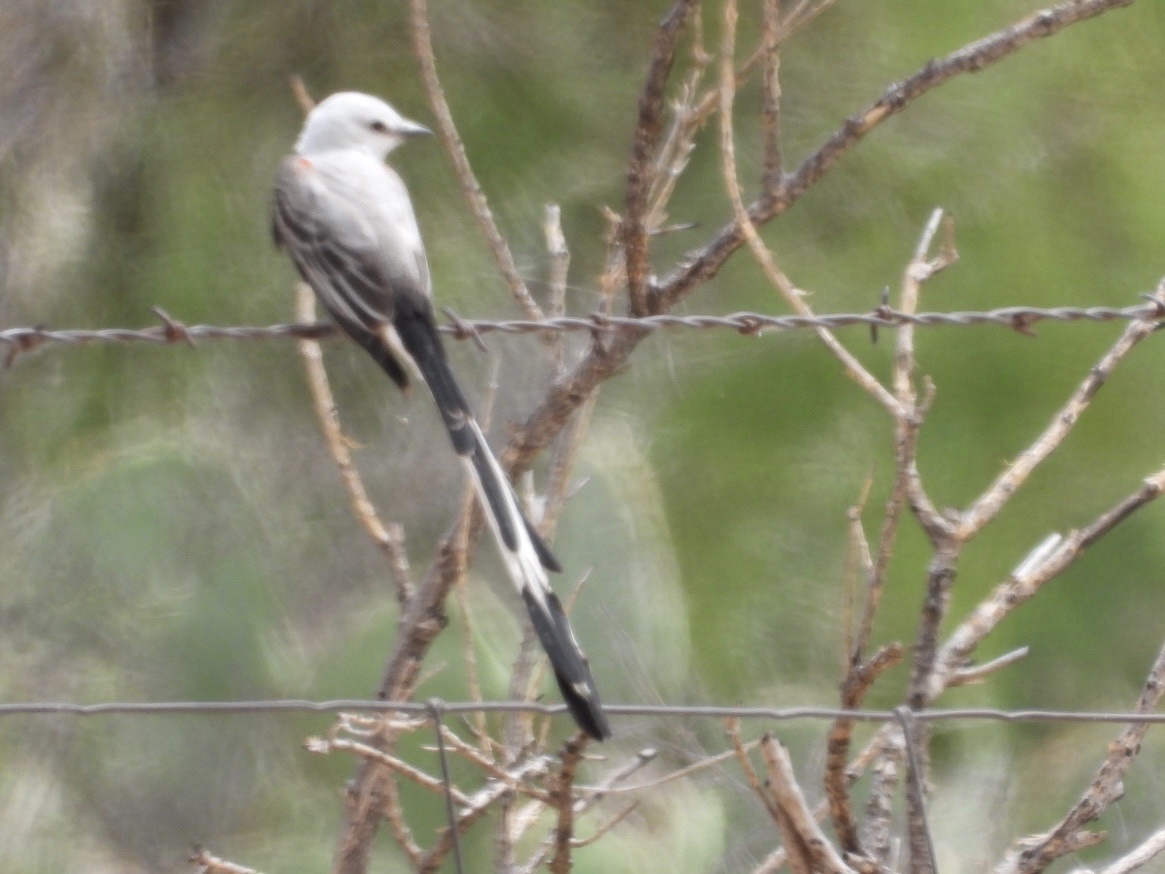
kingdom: Animalia
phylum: Chordata
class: Aves
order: Passeriformes
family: Tyrannidae
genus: Tyrannus
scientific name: Tyrannus forficatus
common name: Scissor-tailed flycatcher
